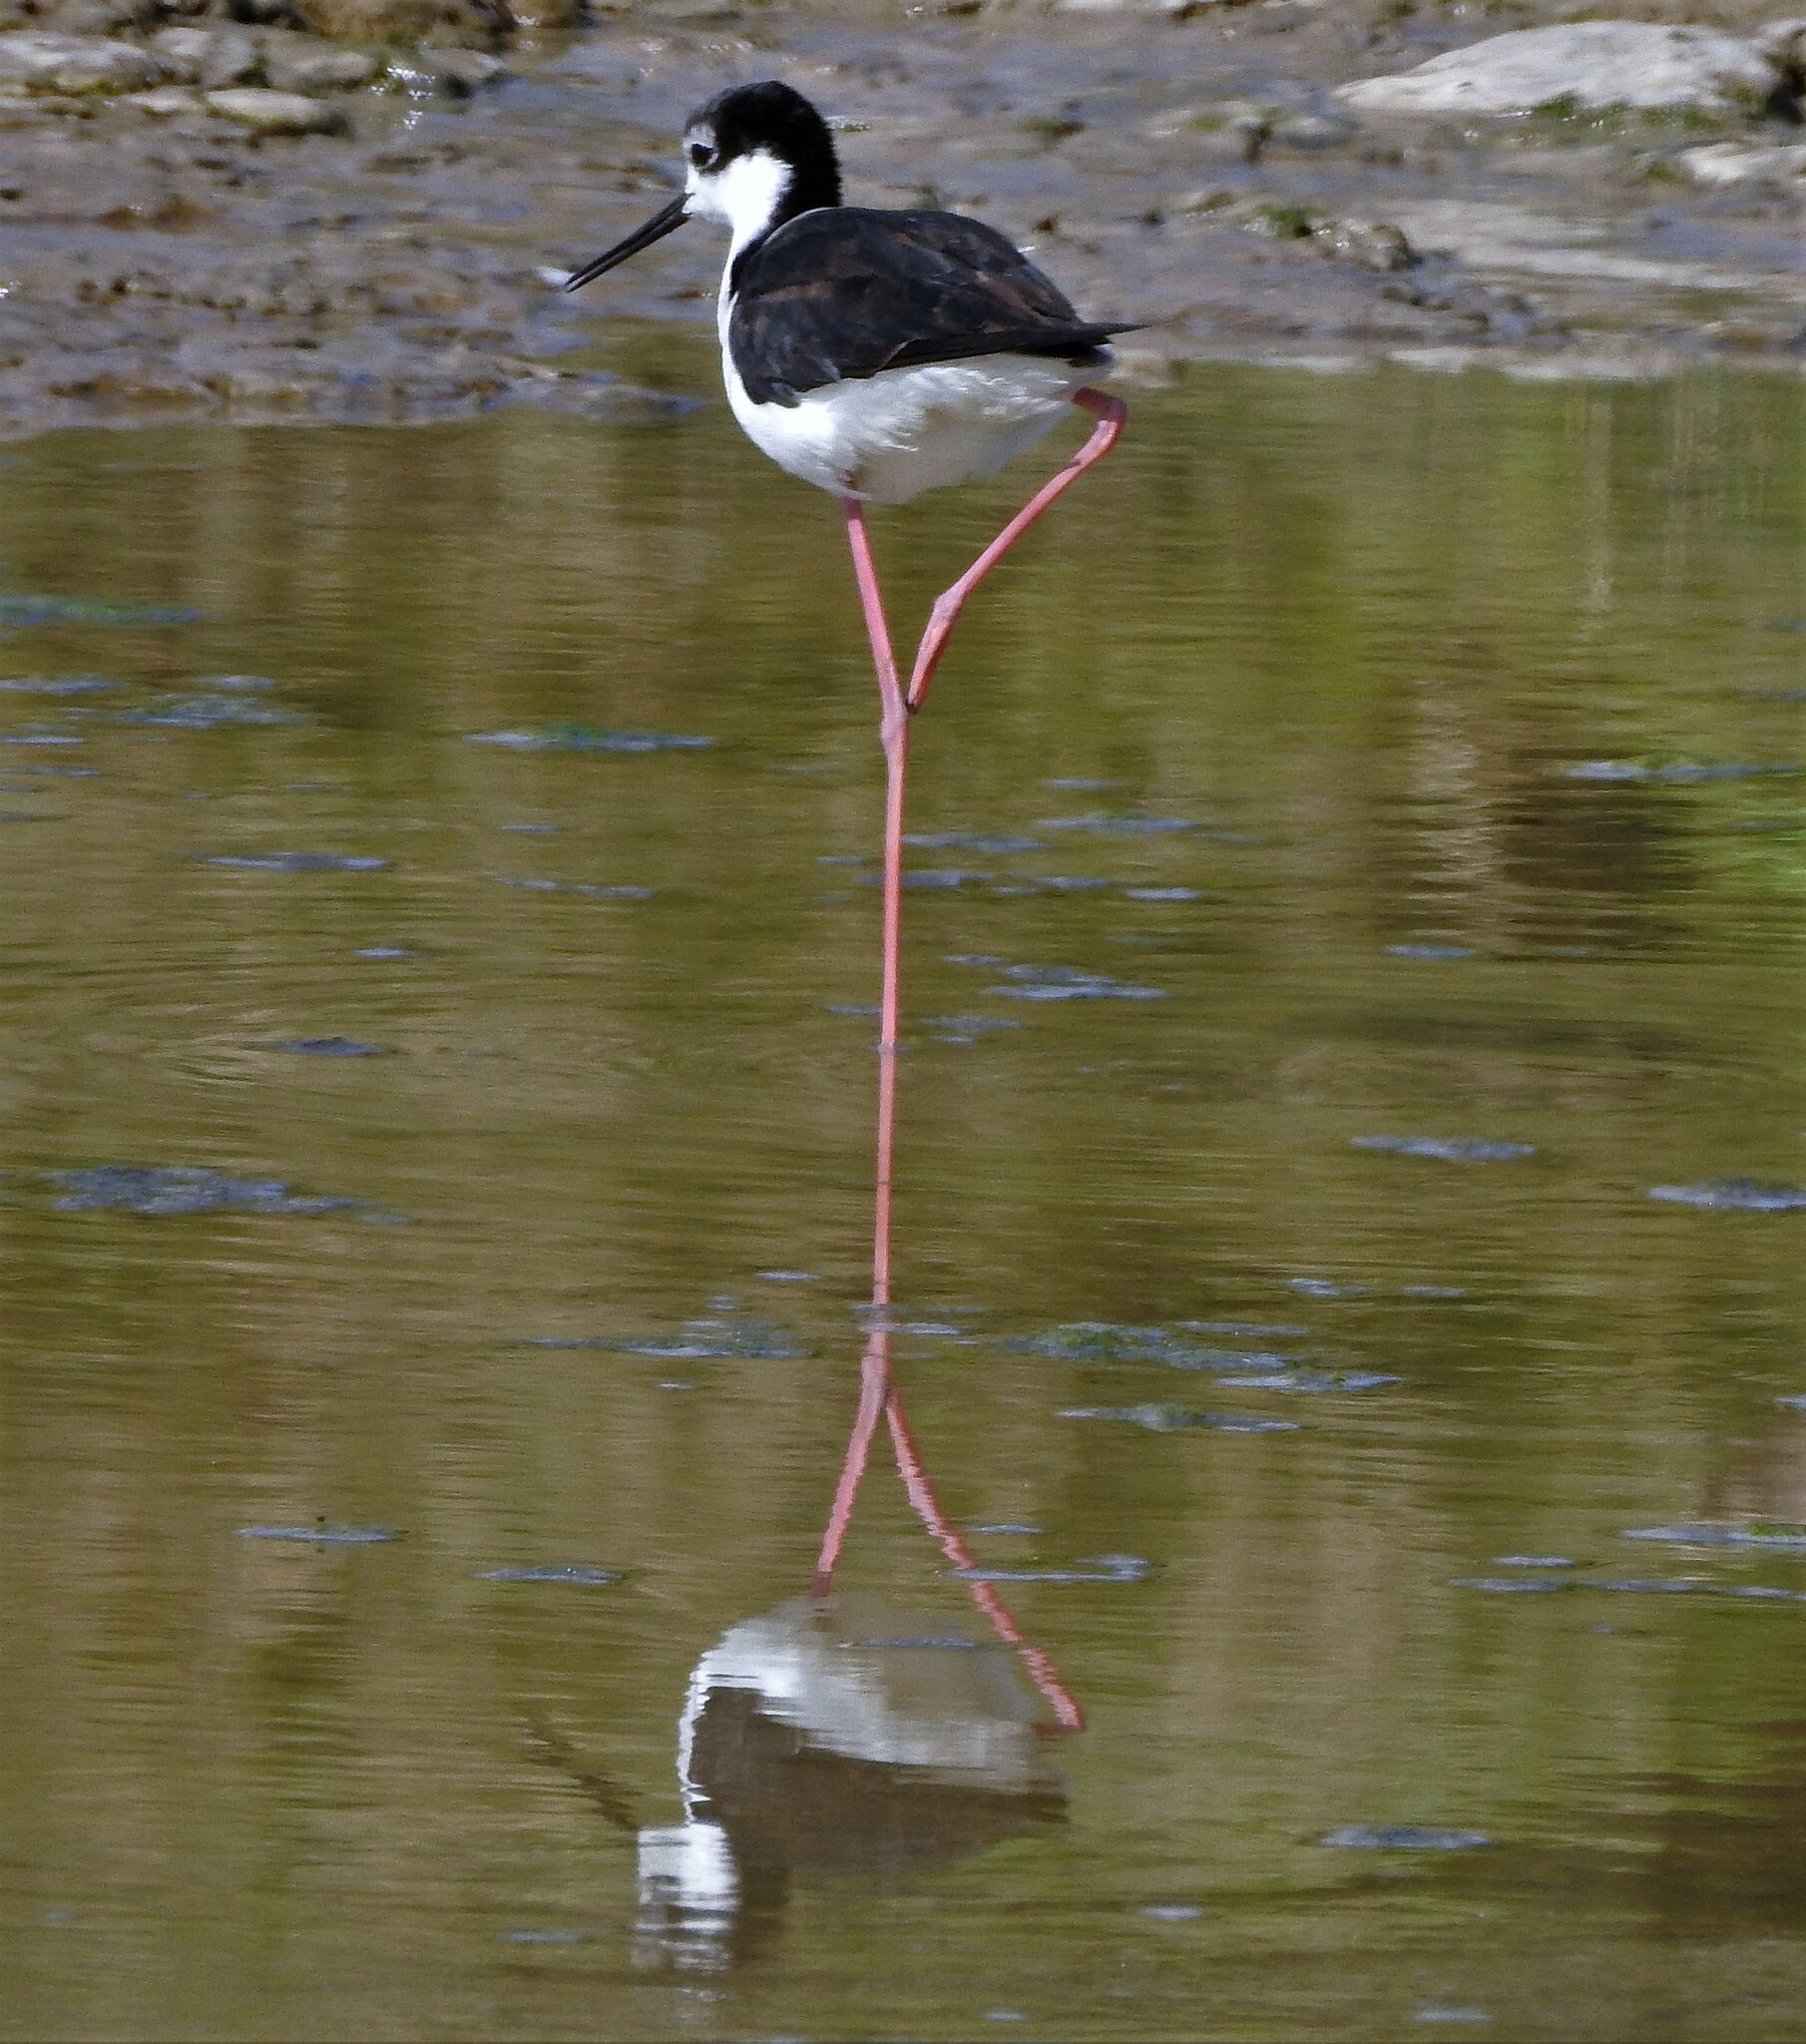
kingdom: Animalia
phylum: Chordata
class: Aves
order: Charadriiformes
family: Recurvirostridae
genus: Himantopus
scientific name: Himantopus mexicanus
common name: Black-necked stilt
